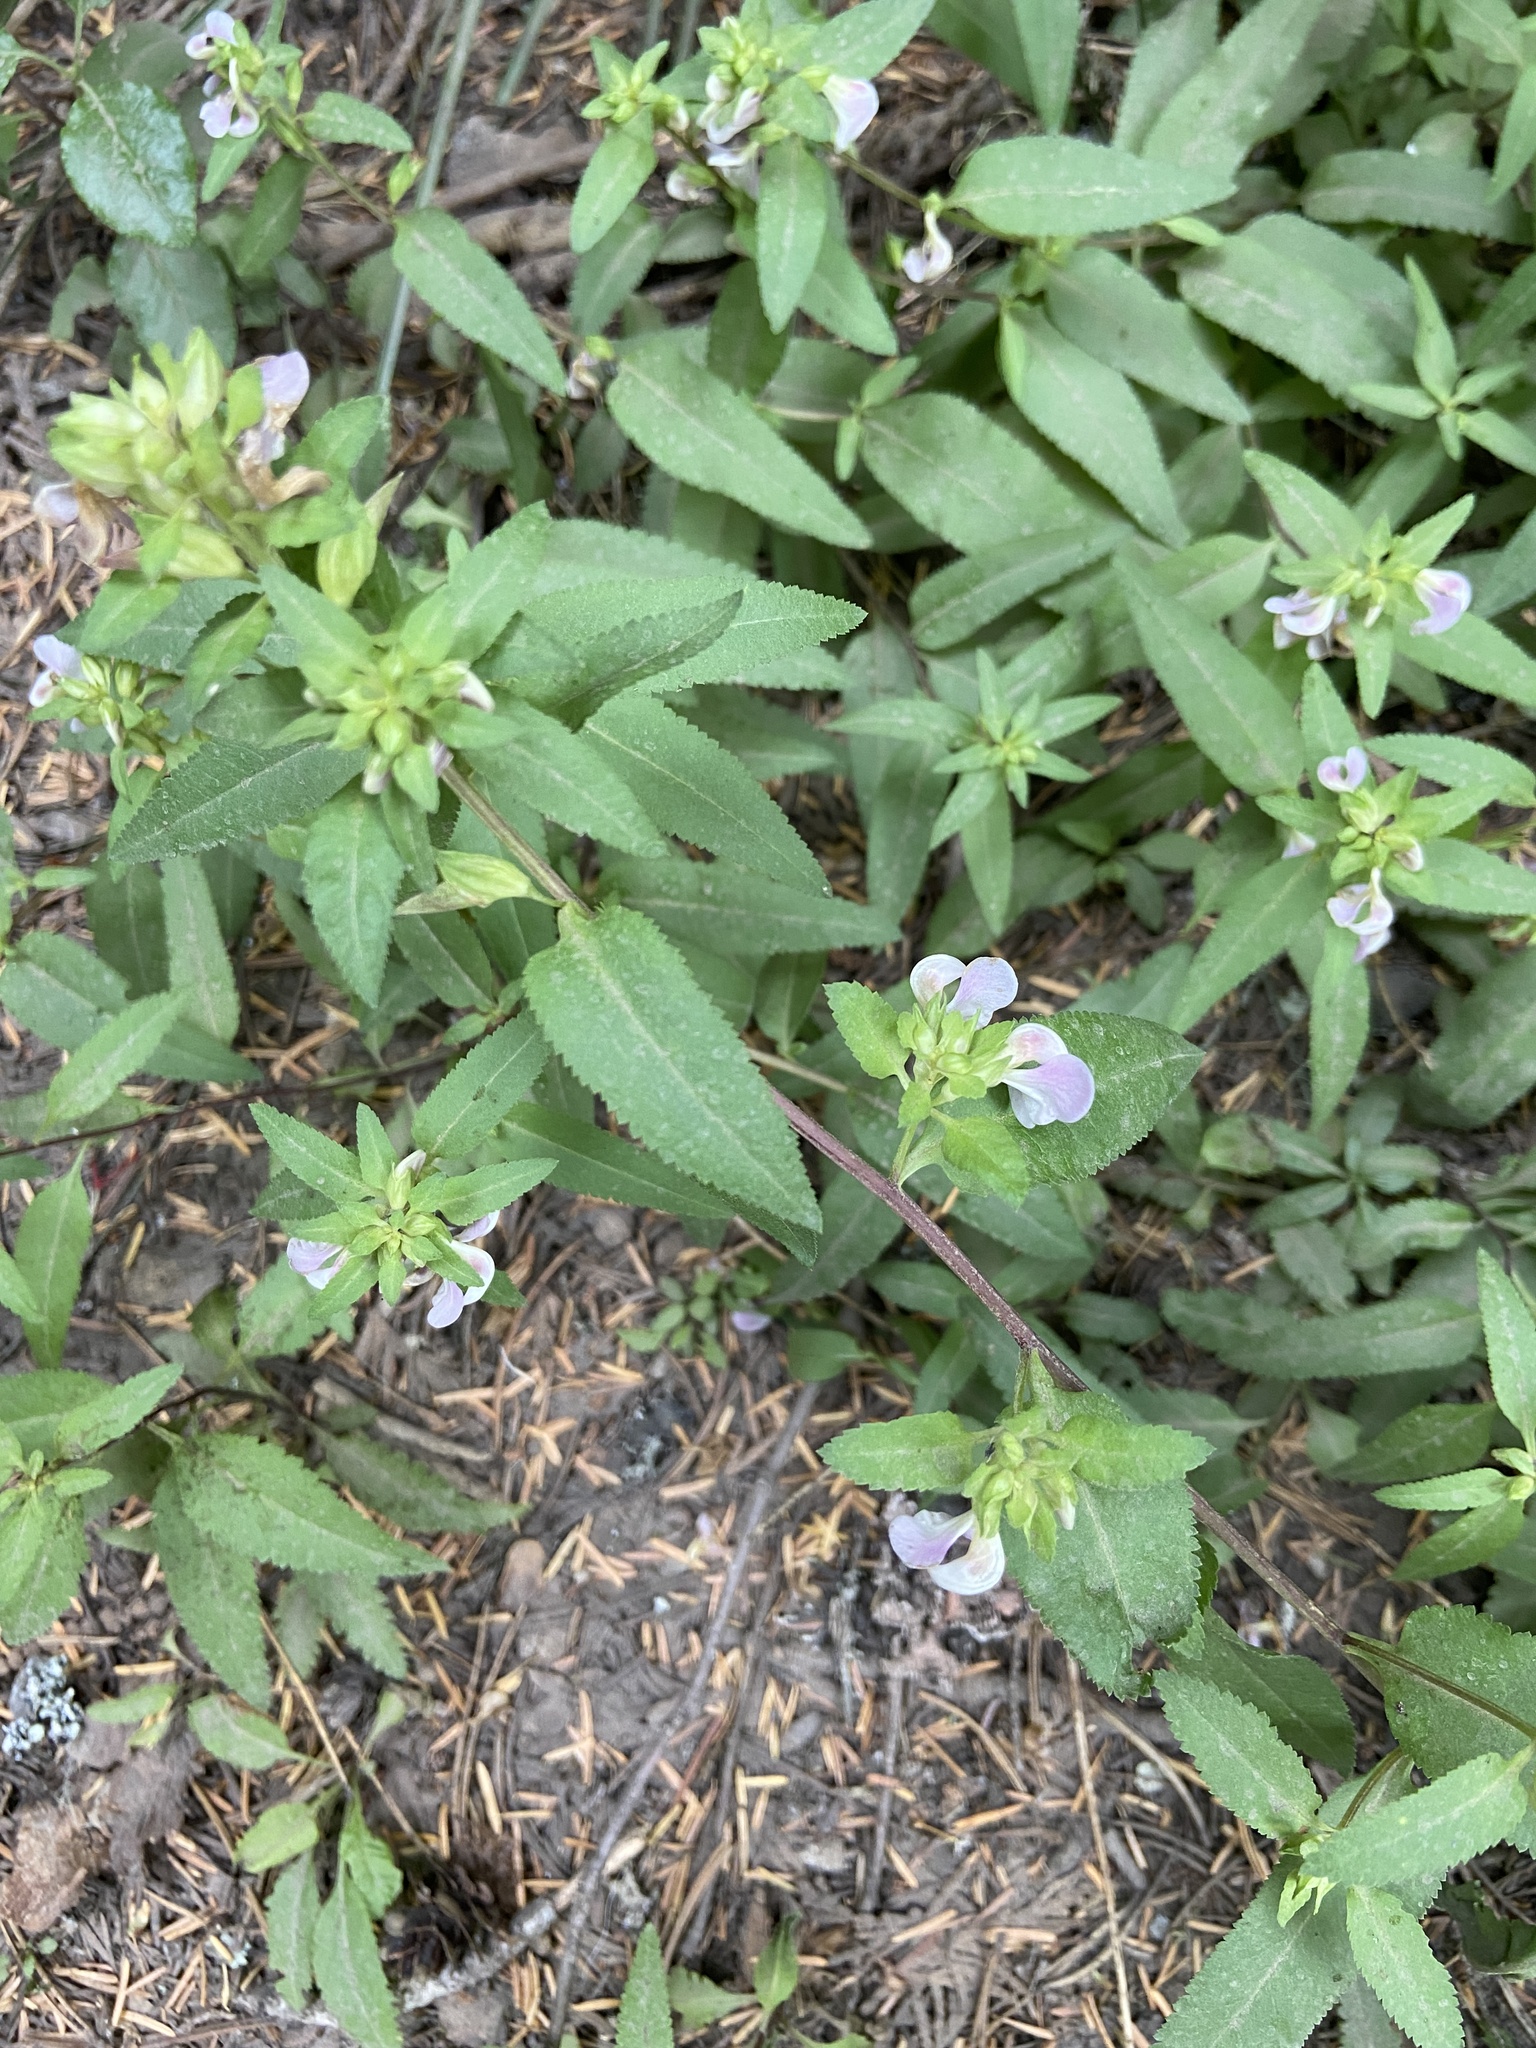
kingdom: Plantae
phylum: Tracheophyta
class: Magnoliopsida
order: Lamiales
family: Orobanchaceae
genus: Pedicularis
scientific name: Pedicularis racemosa
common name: Leafy lousewort
